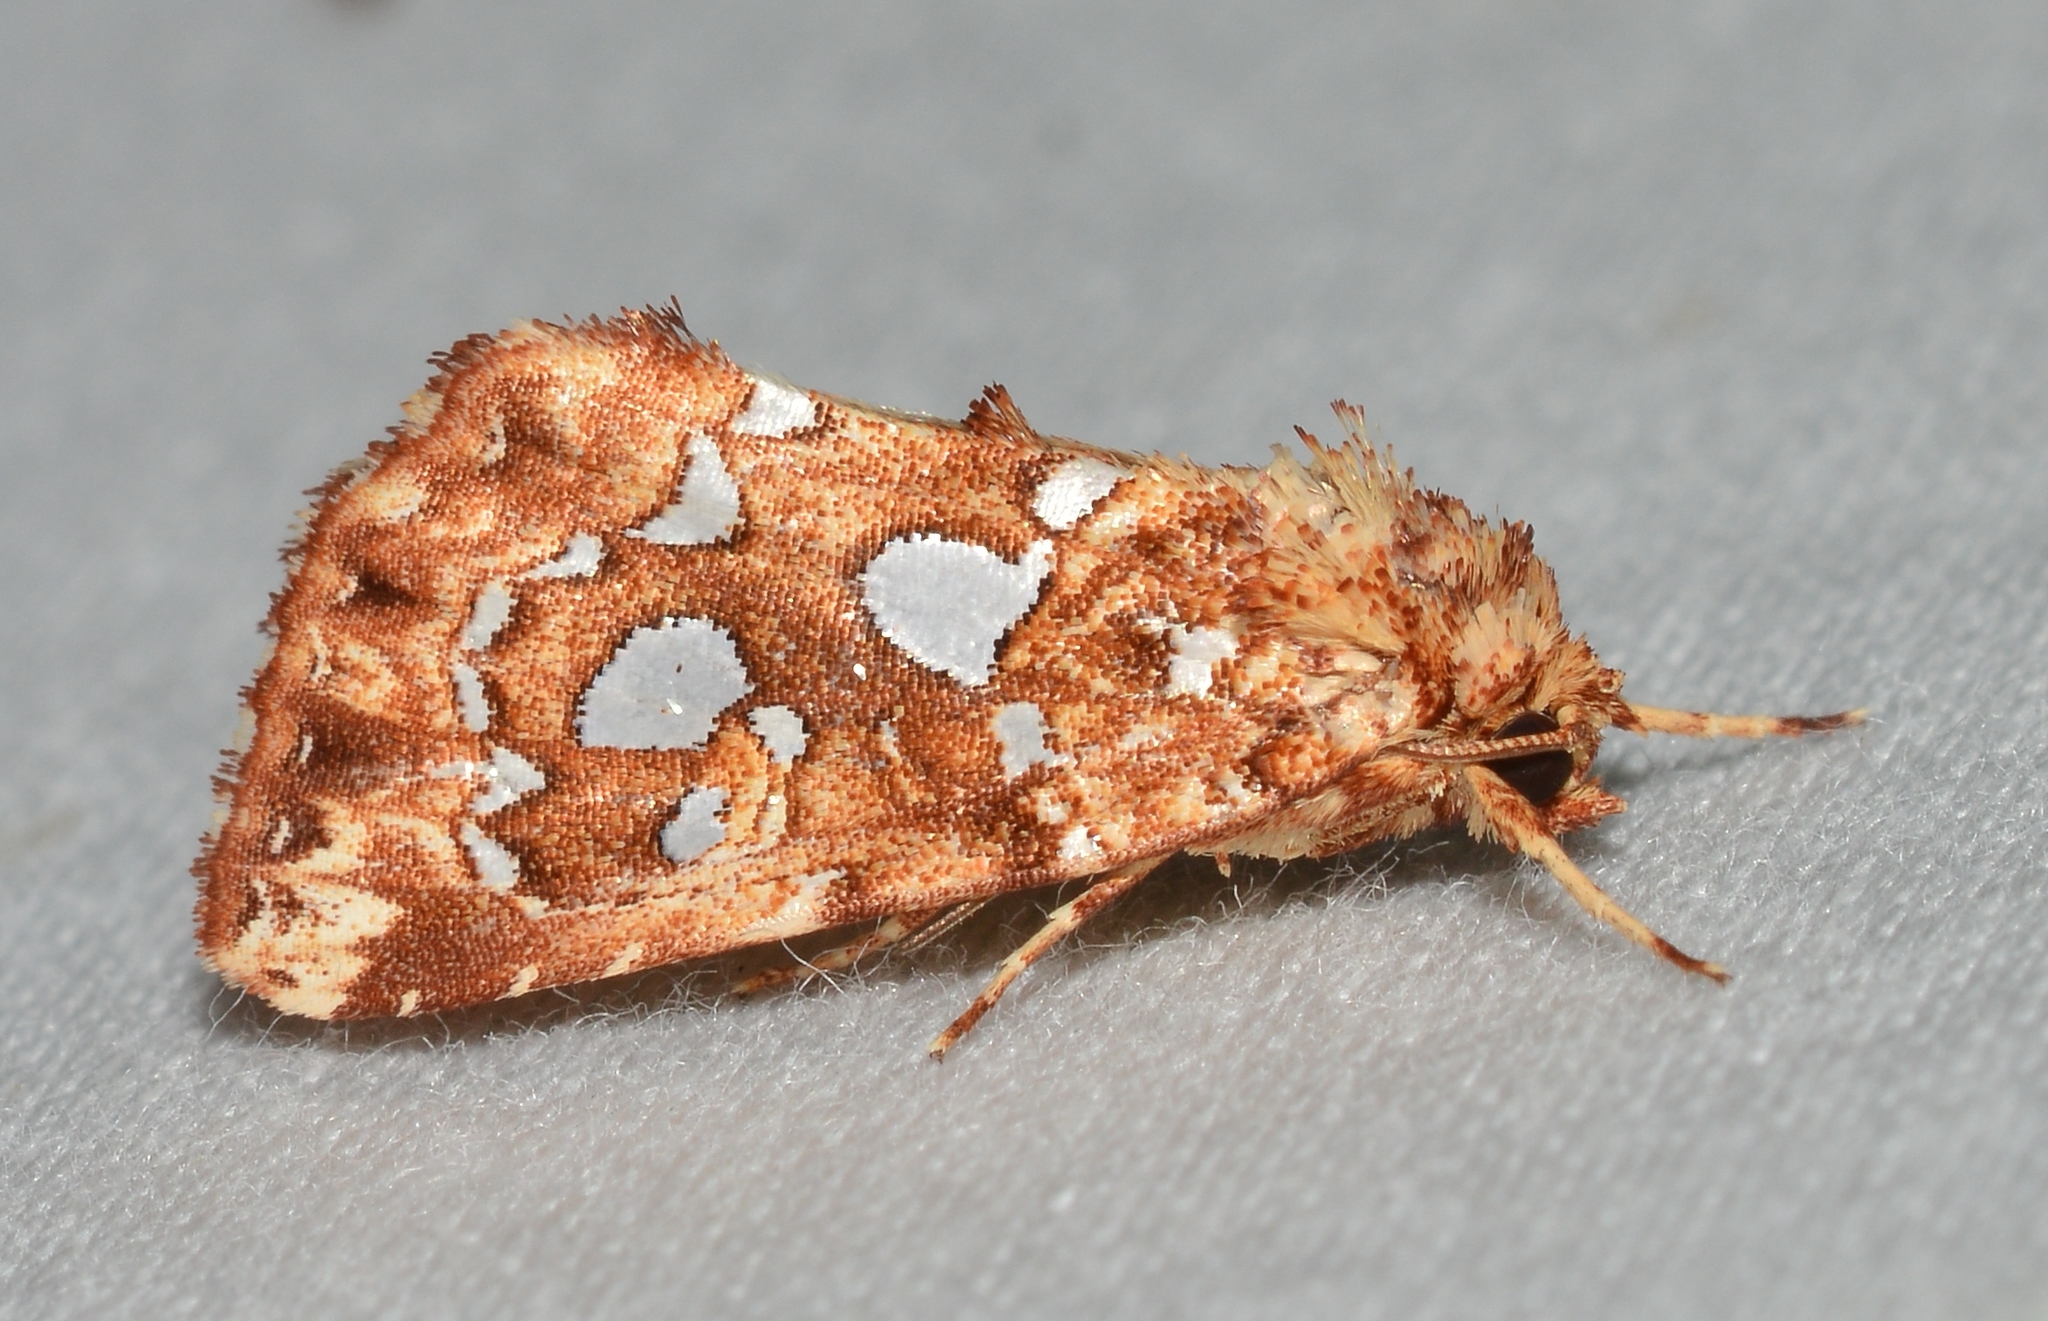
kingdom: Animalia
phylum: Arthropoda
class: Insecta
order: Lepidoptera
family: Noctuidae
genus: Callopistria
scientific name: Callopistria cordata
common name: Silver-spotted fern moth
